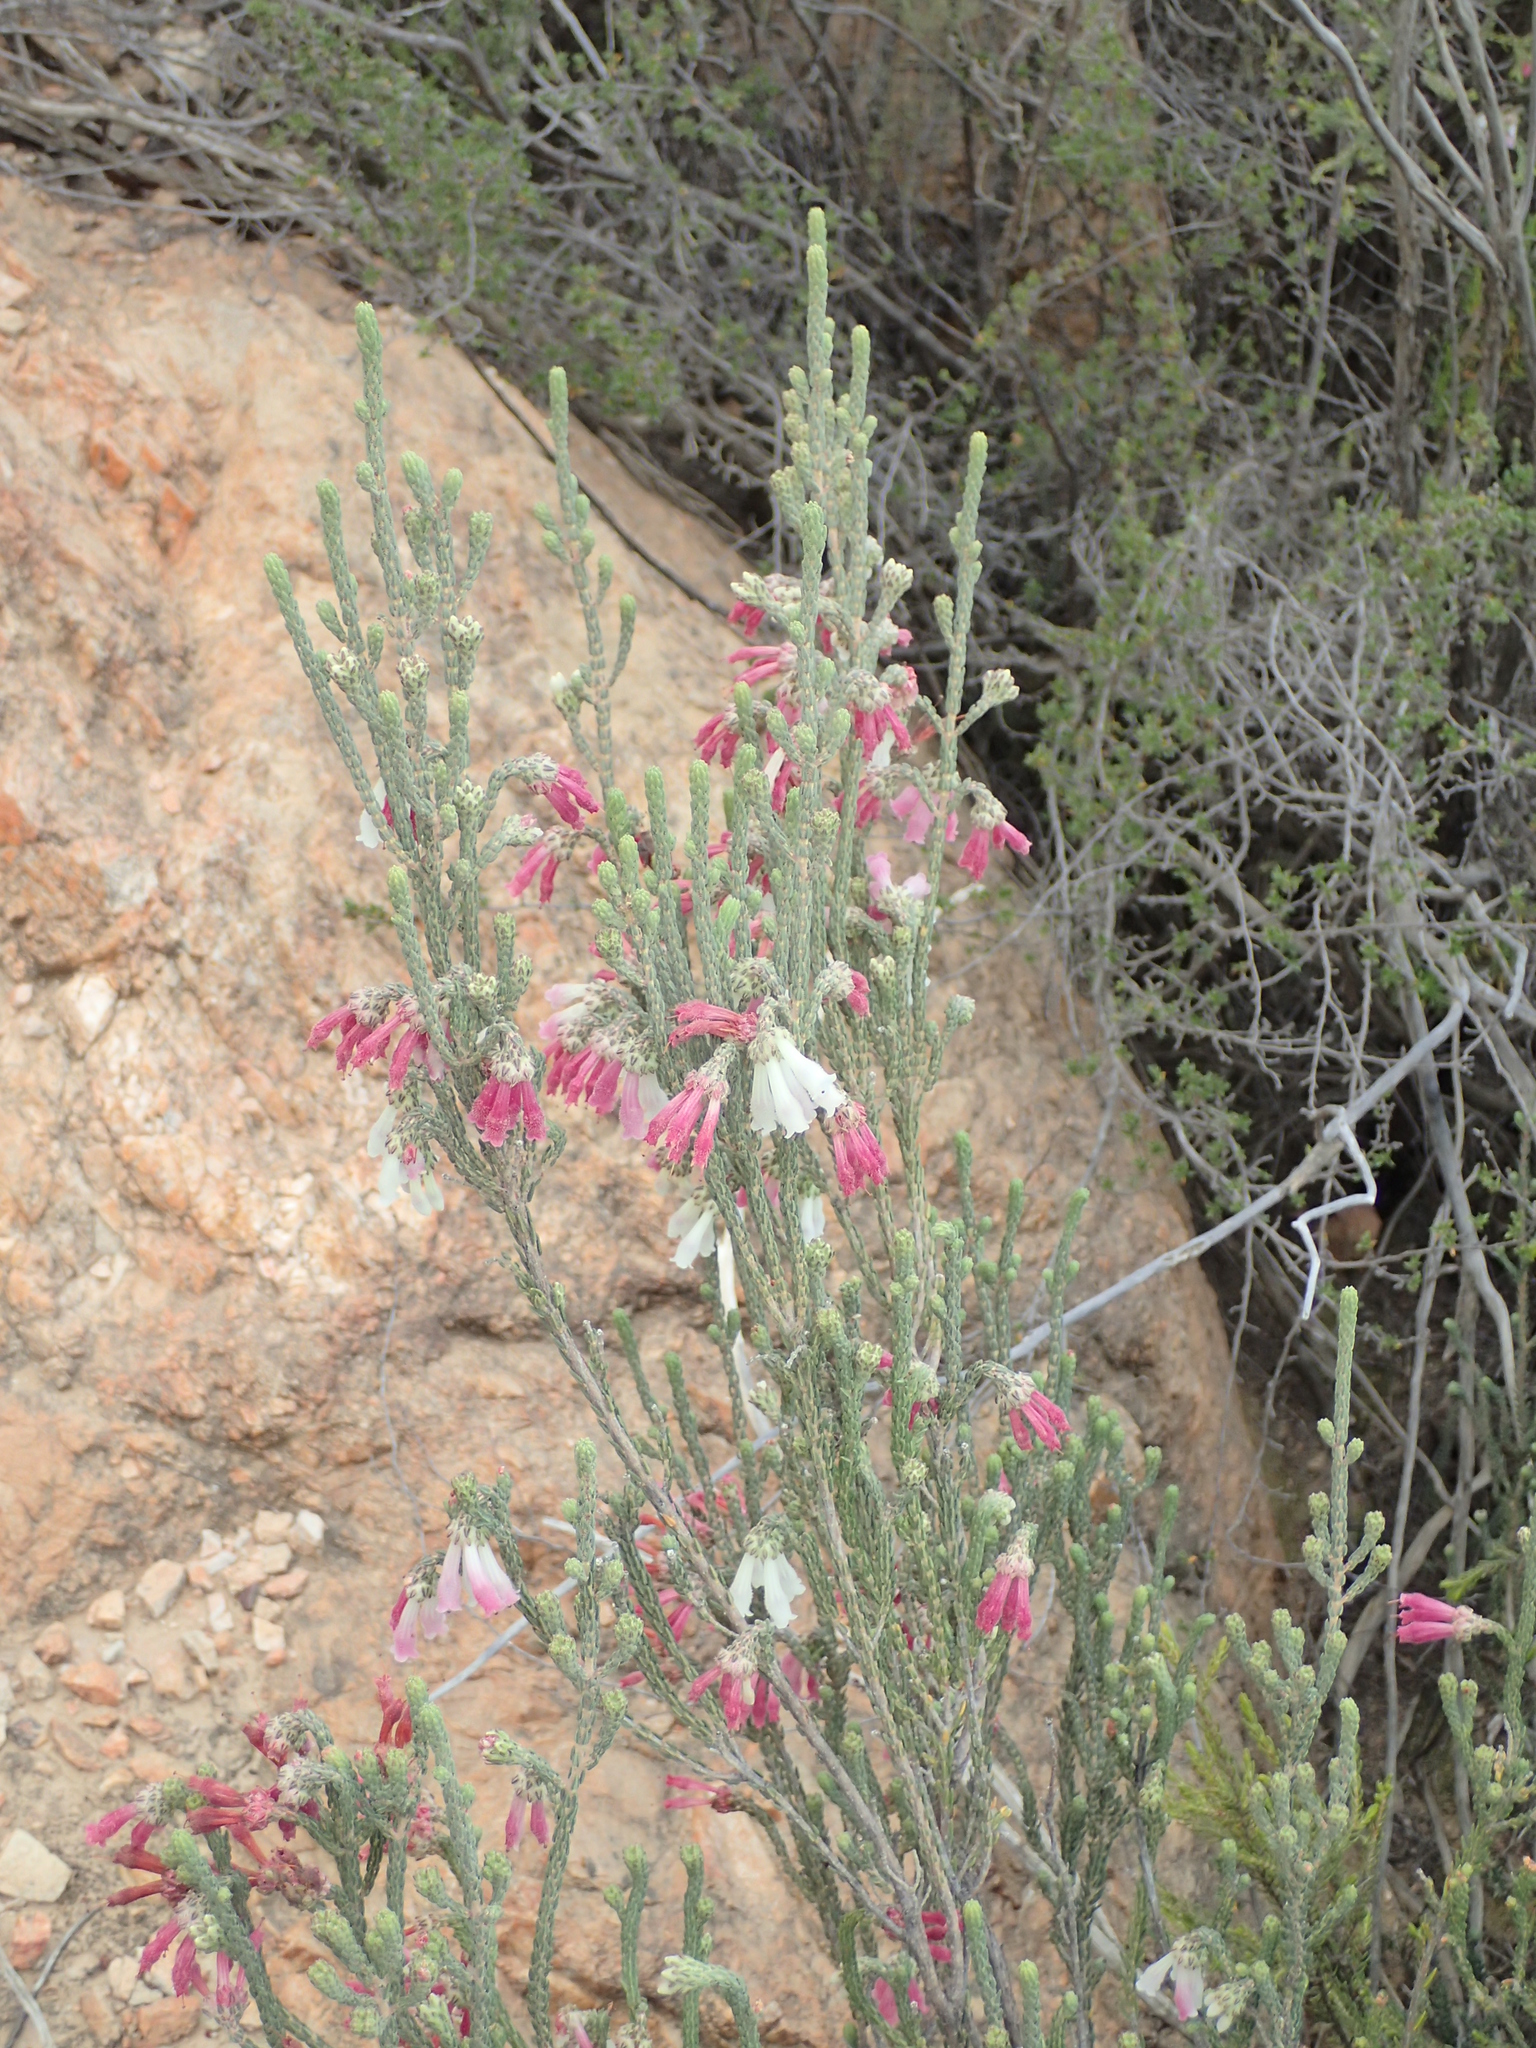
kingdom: Plantae
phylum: Tracheophyta
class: Magnoliopsida
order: Ericales
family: Ericaceae
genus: Erica
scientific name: Erica strigilifolia
